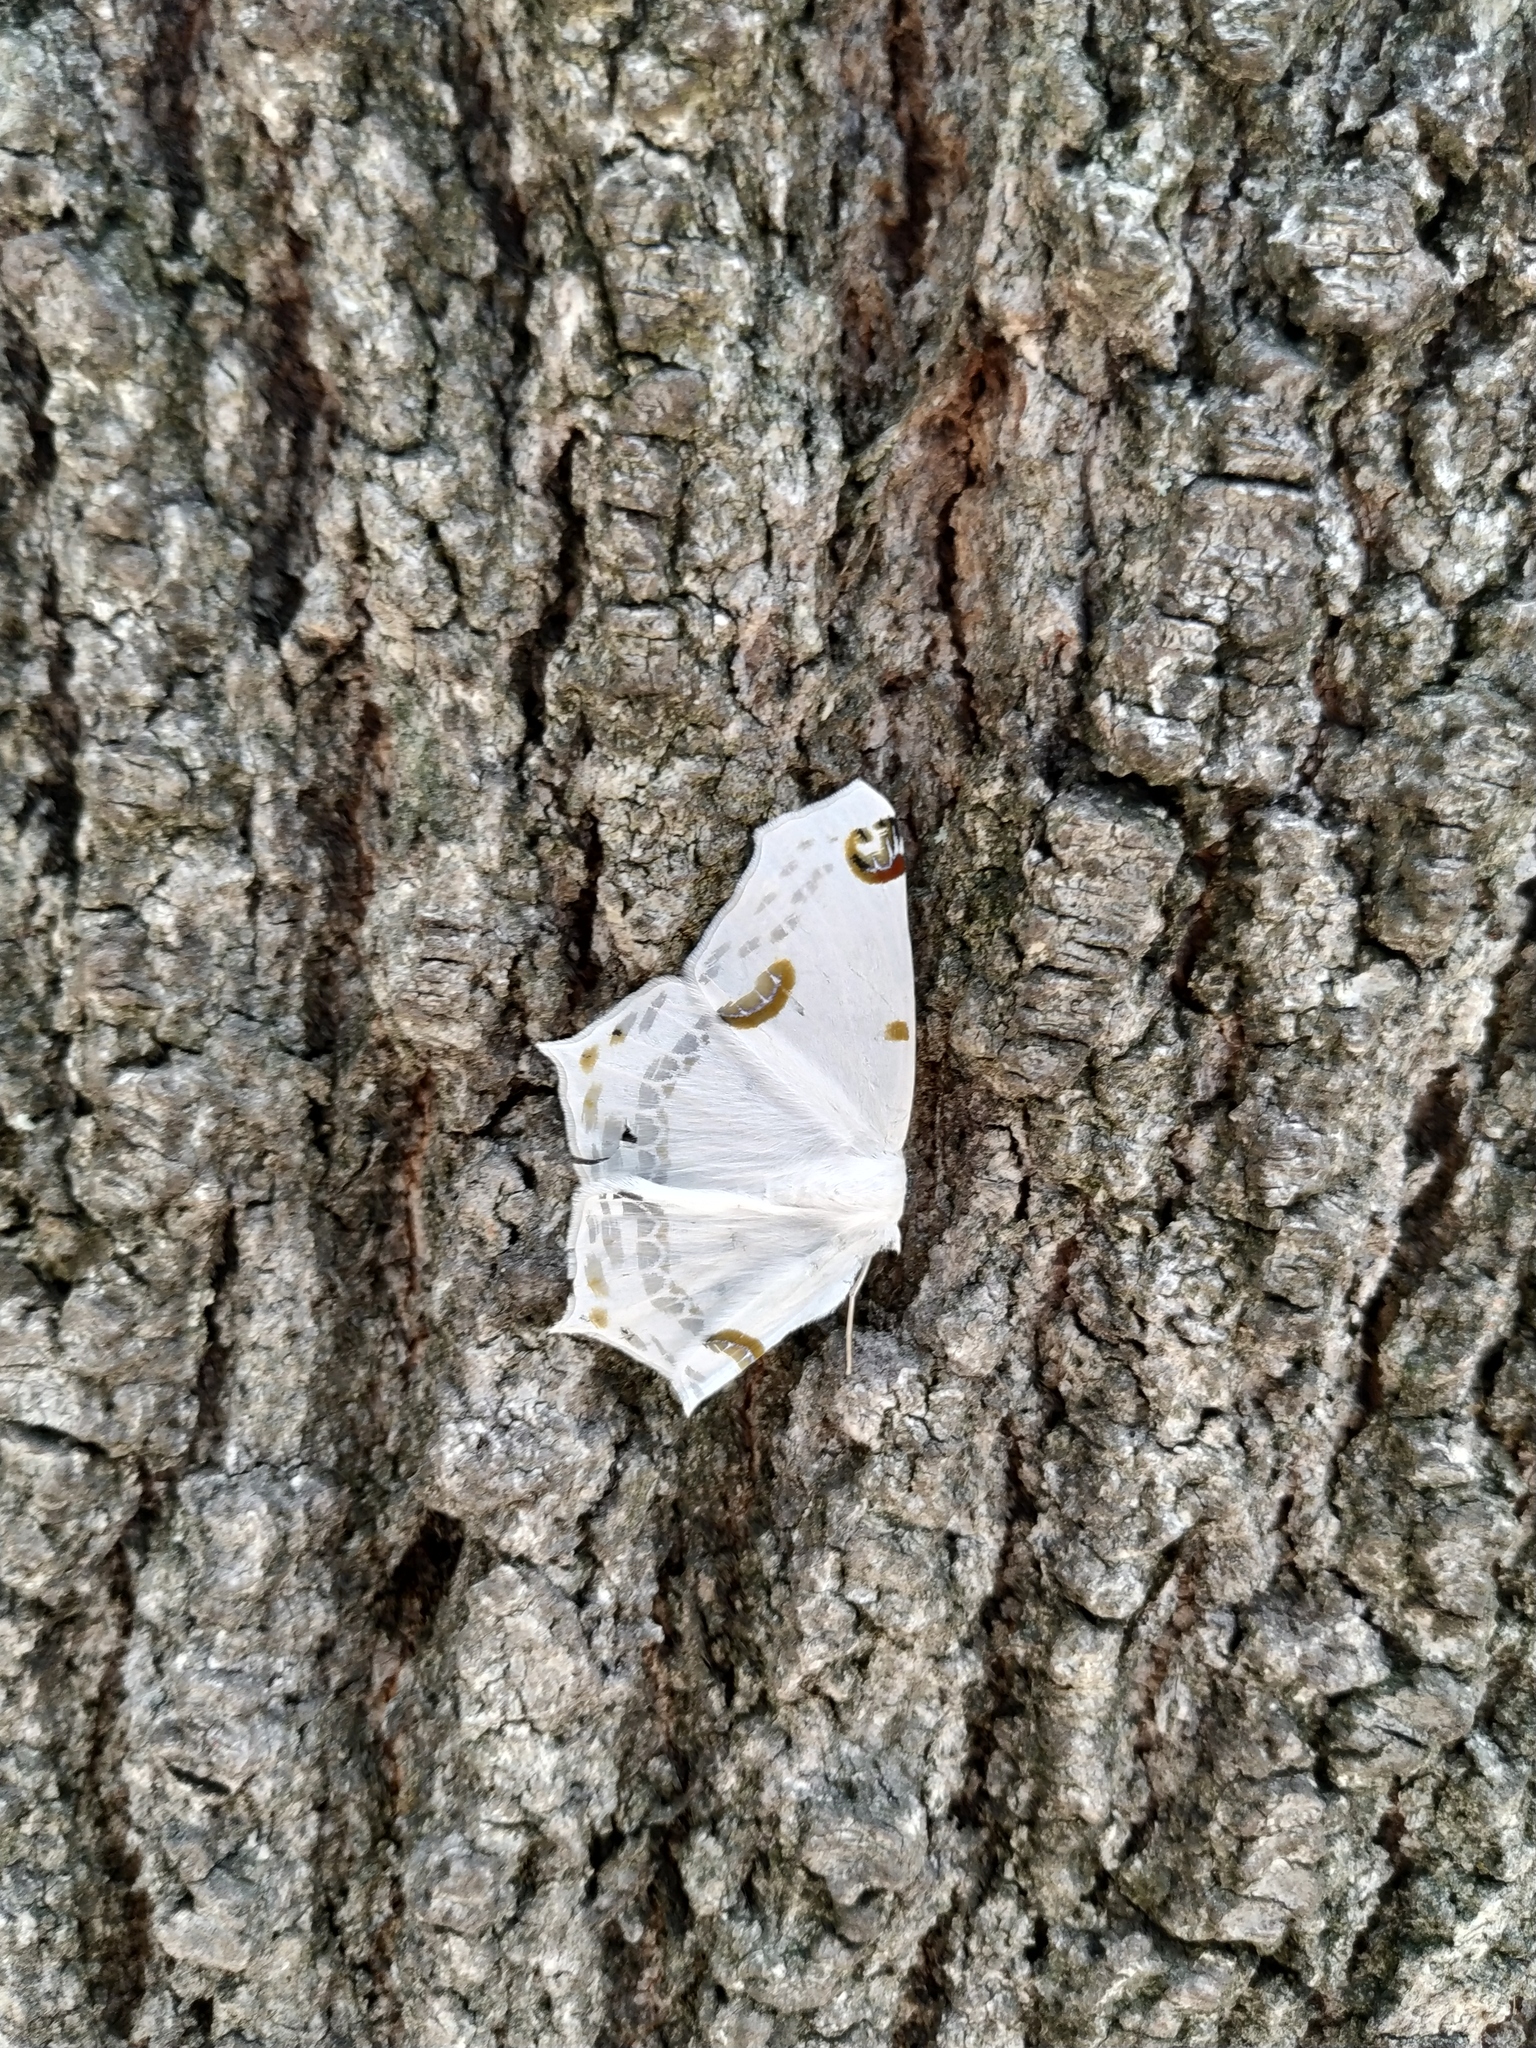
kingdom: Animalia
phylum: Arthropoda
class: Insecta
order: Lepidoptera
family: Geometridae
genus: Sericoptera
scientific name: Sericoptera mahometaria
